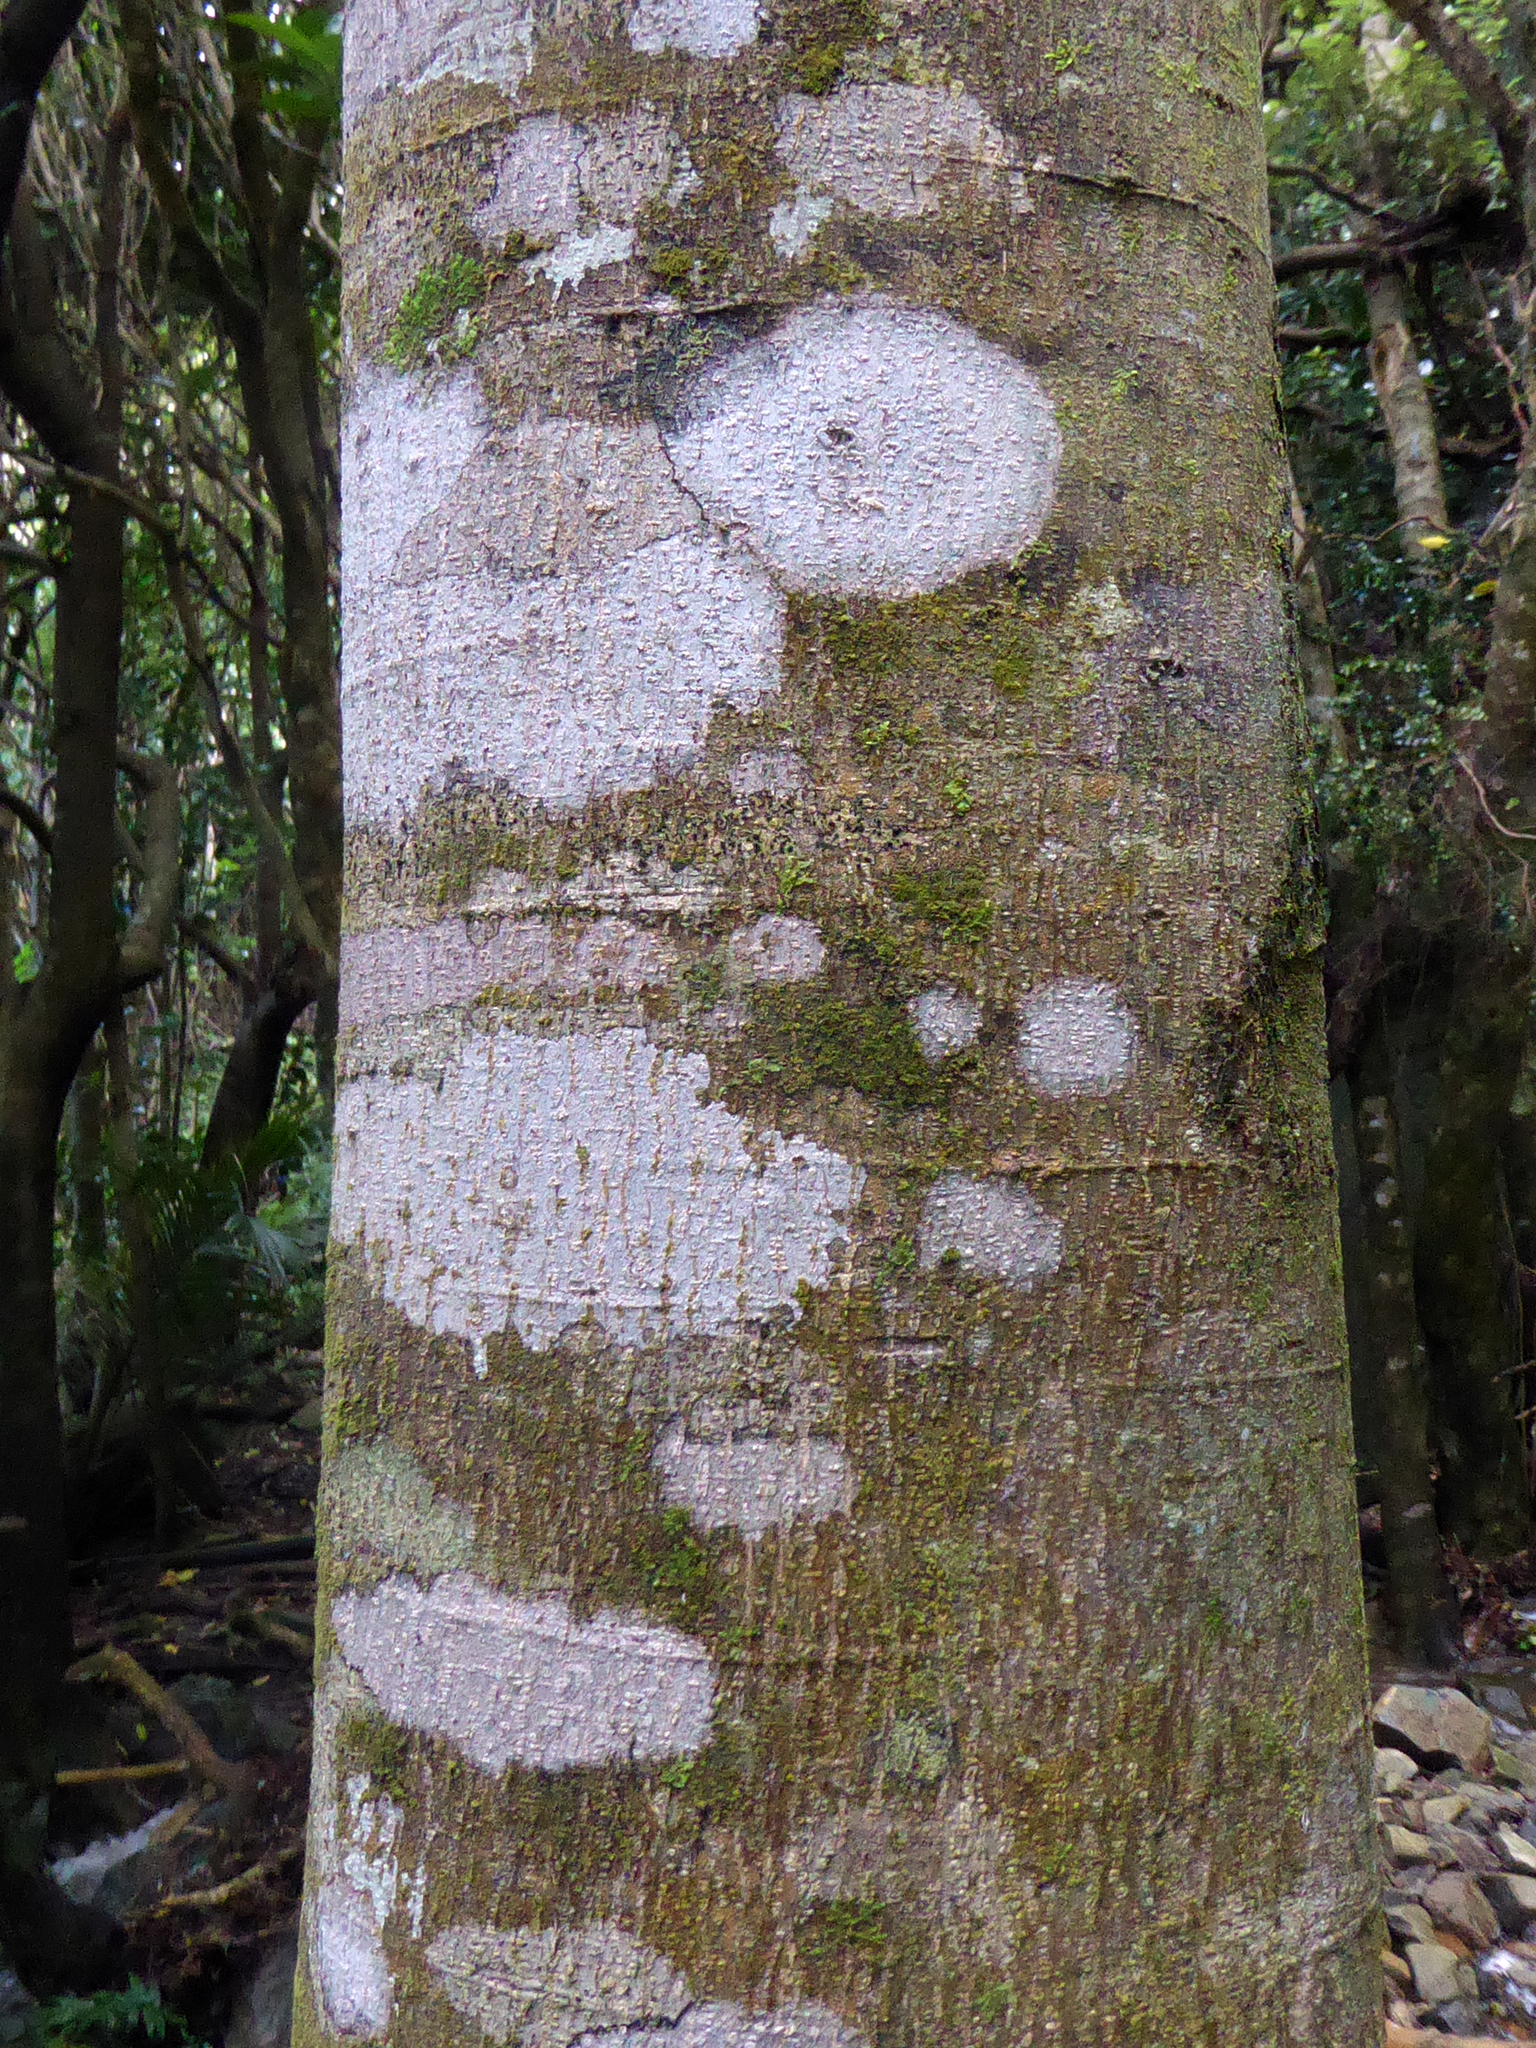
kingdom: Plantae
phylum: Tracheophyta
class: Magnoliopsida
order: Rosales
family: Moraceae
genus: Paratrophis
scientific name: Paratrophis banksii
